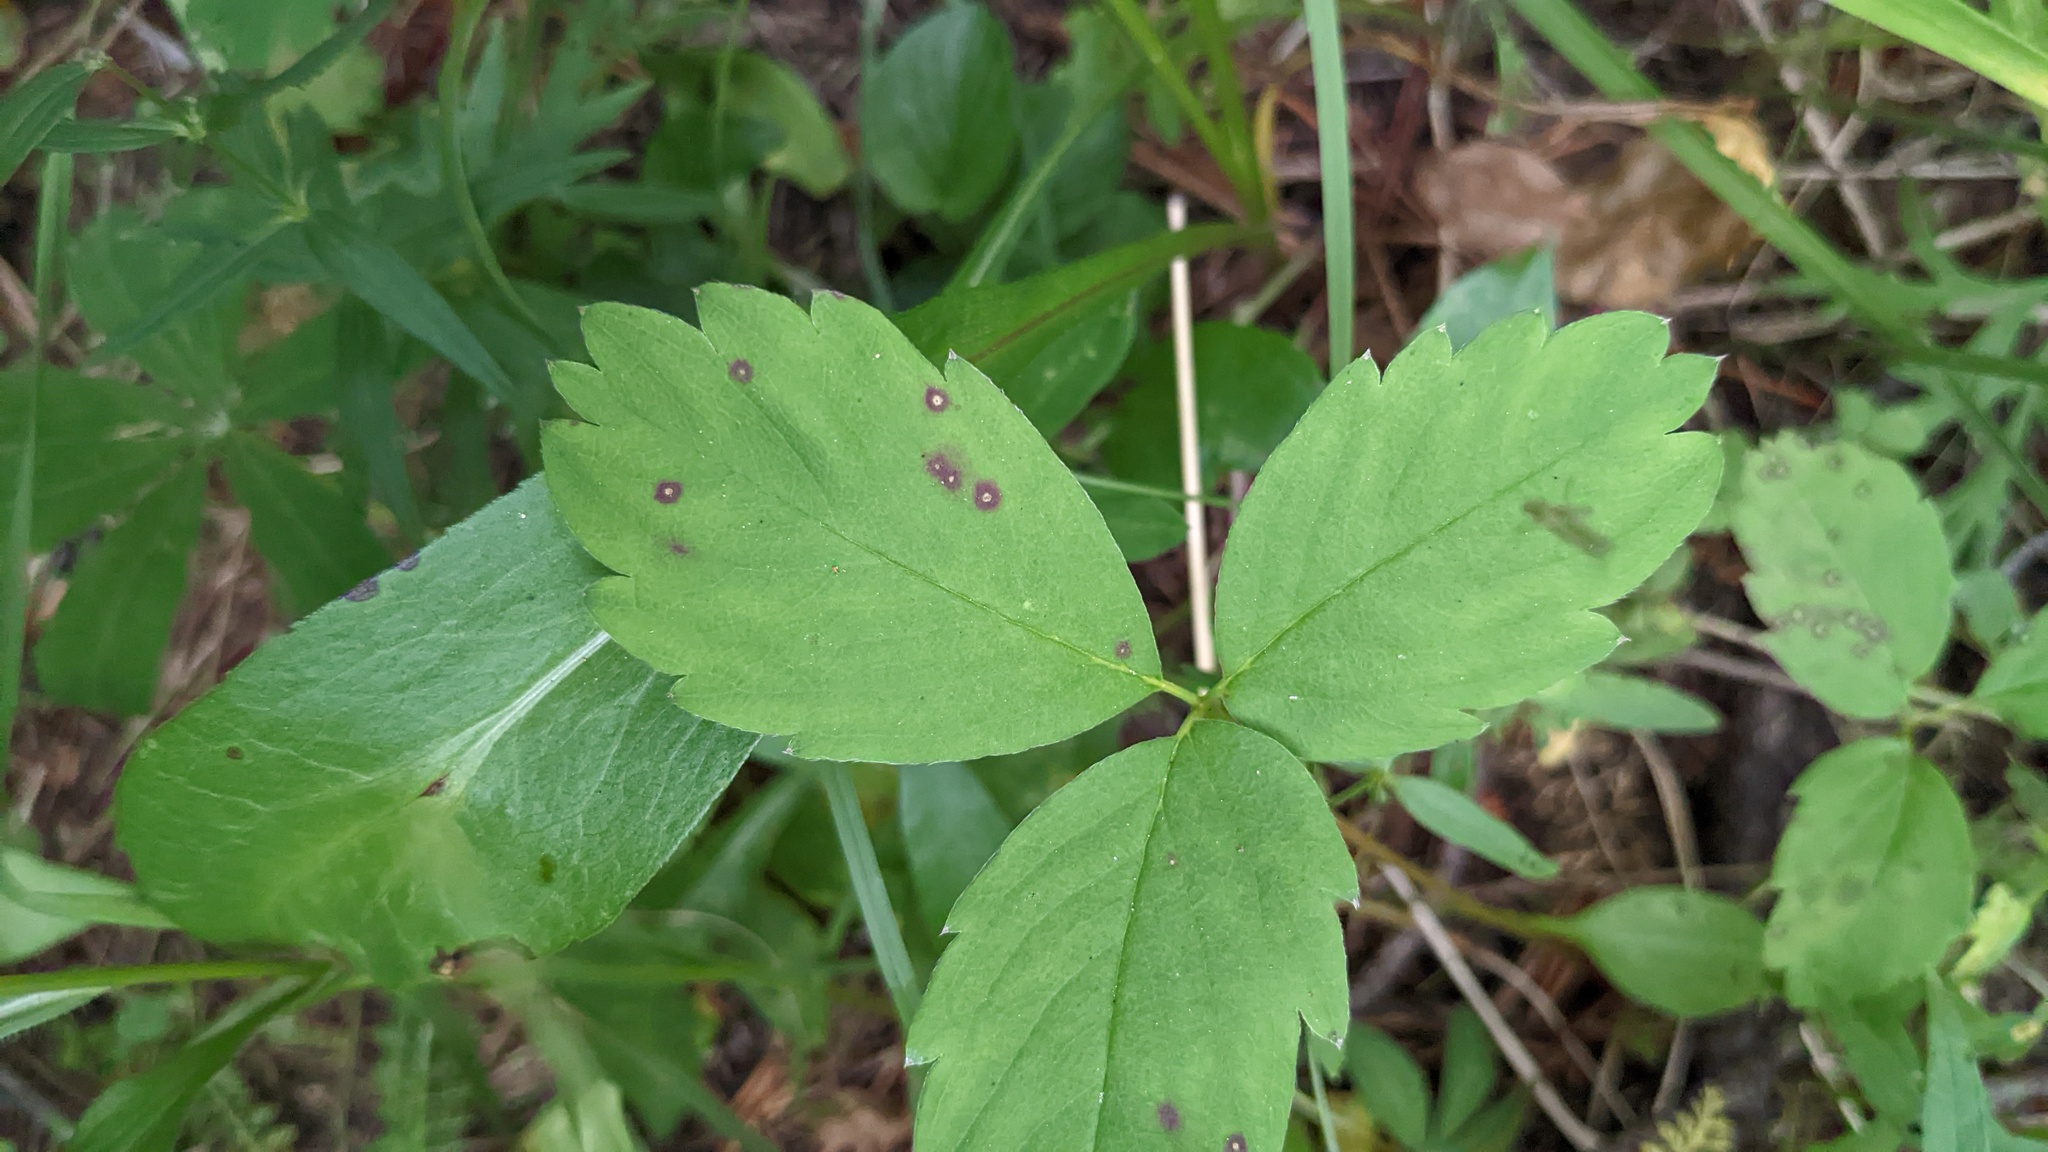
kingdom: Fungi
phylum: Ascomycota
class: Dothideomycetes
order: Mycosphaerellales
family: Mycosphaerellaceae
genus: Ramularia
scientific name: Ramularia grevilleana
